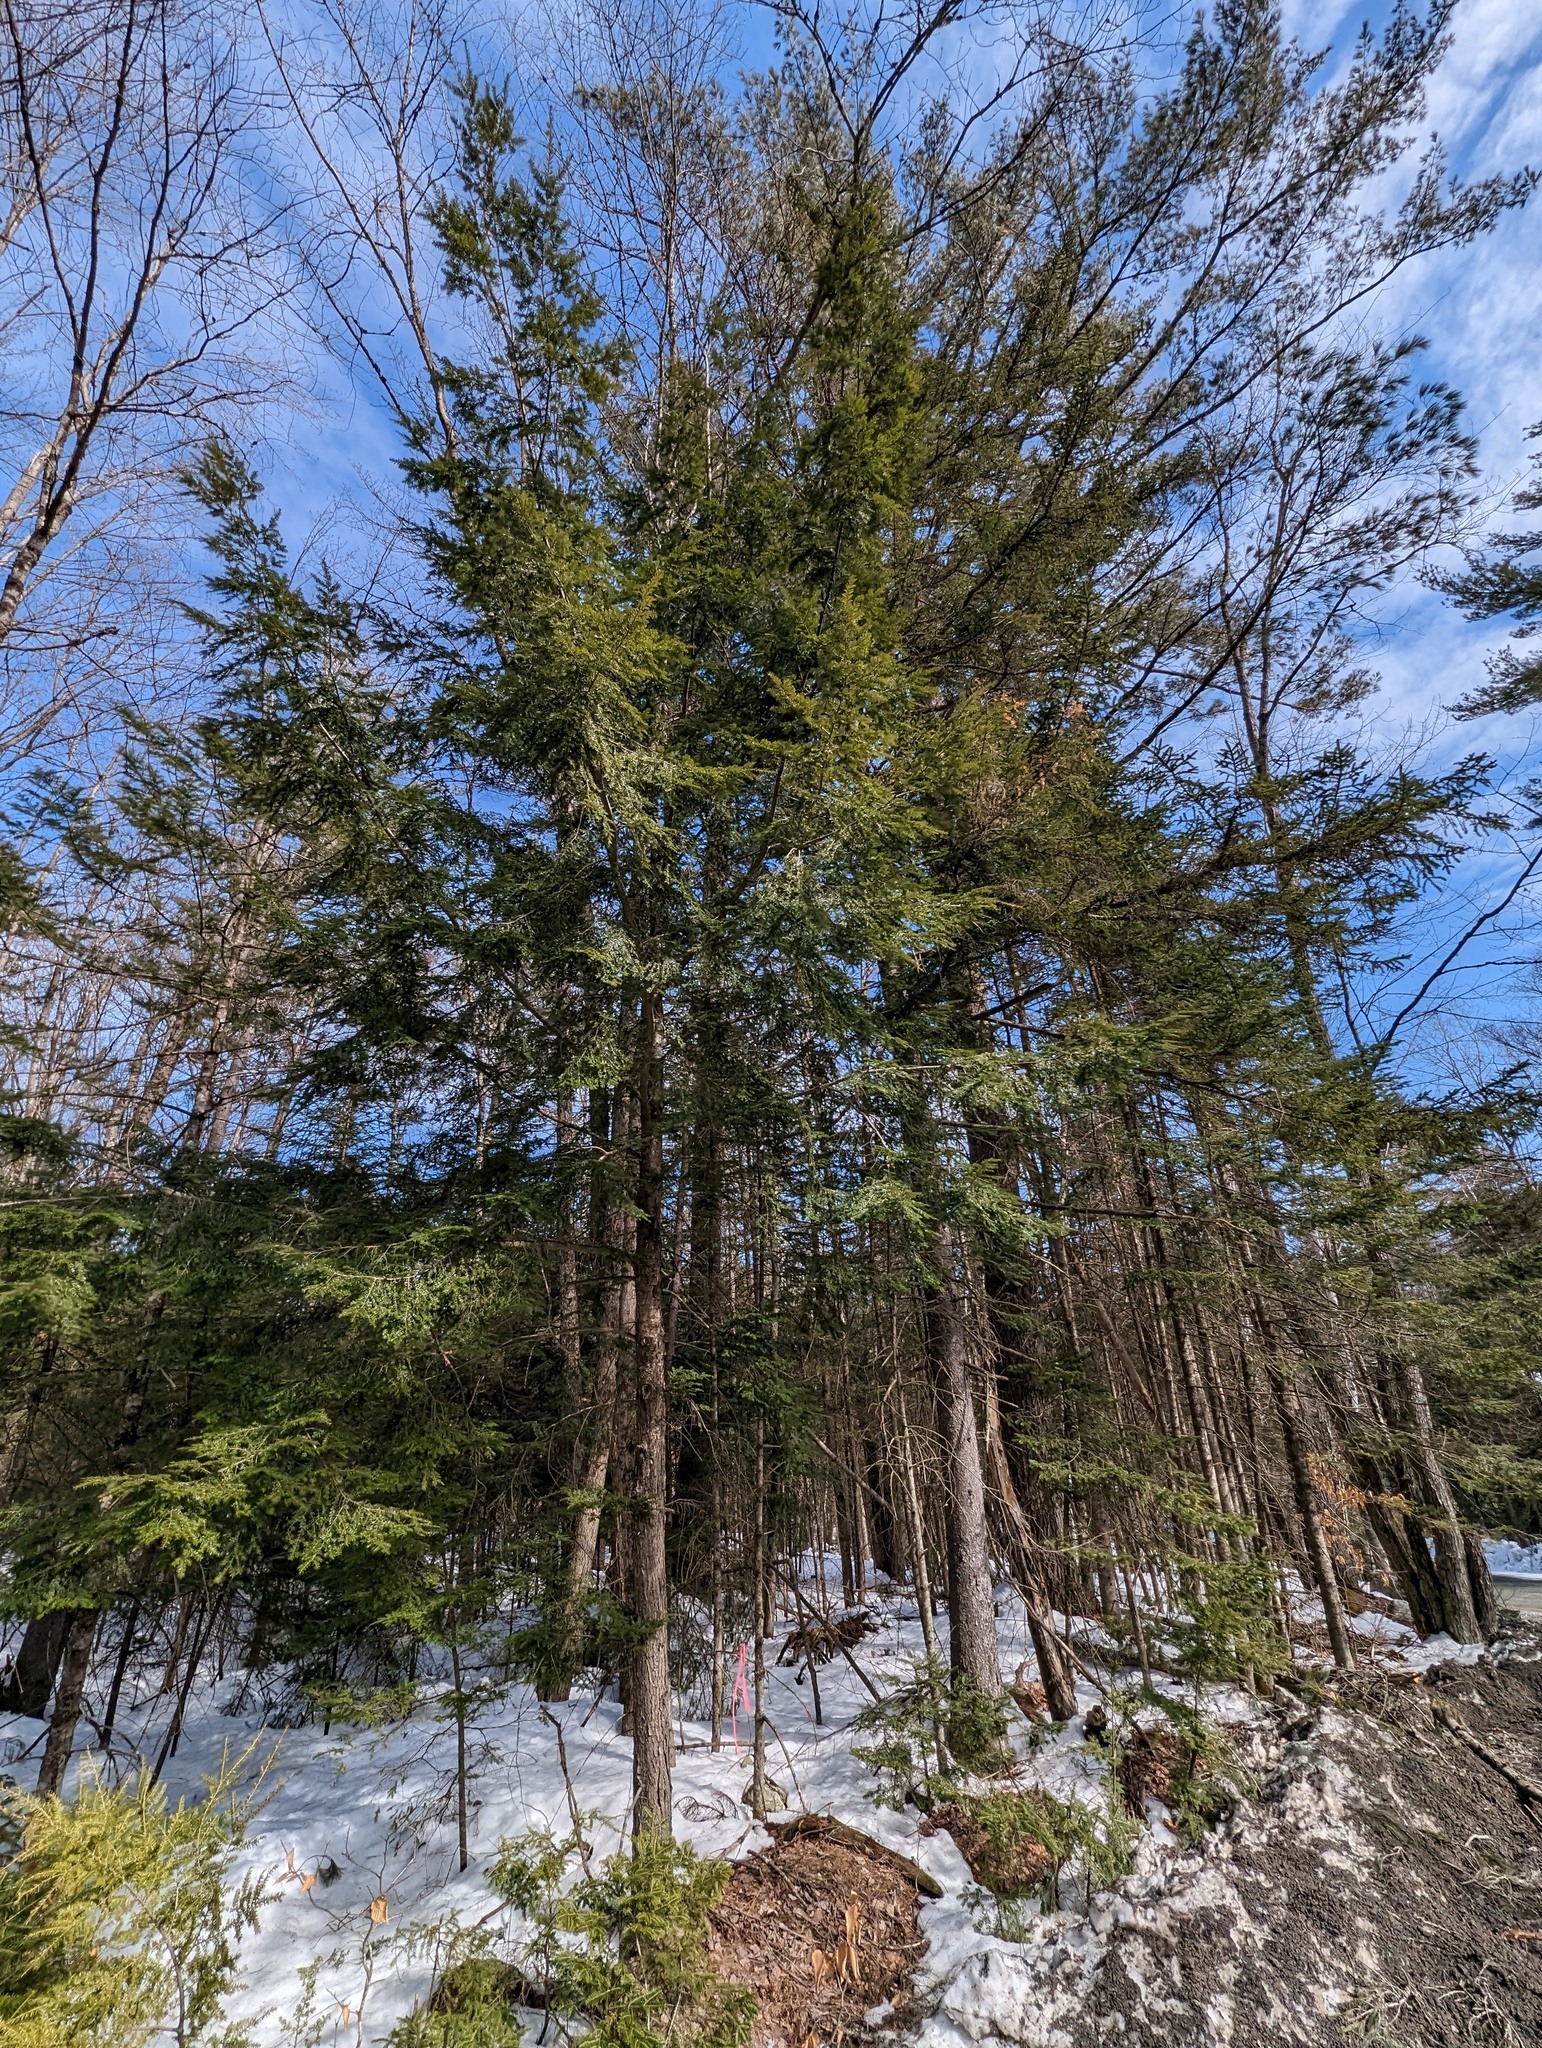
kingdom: Plantae
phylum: Tracheophyta
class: Pinopsida
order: Pinales
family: Pinaceae
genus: Tsuga
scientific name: Tsuga canadensis
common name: Eastern hemlock
